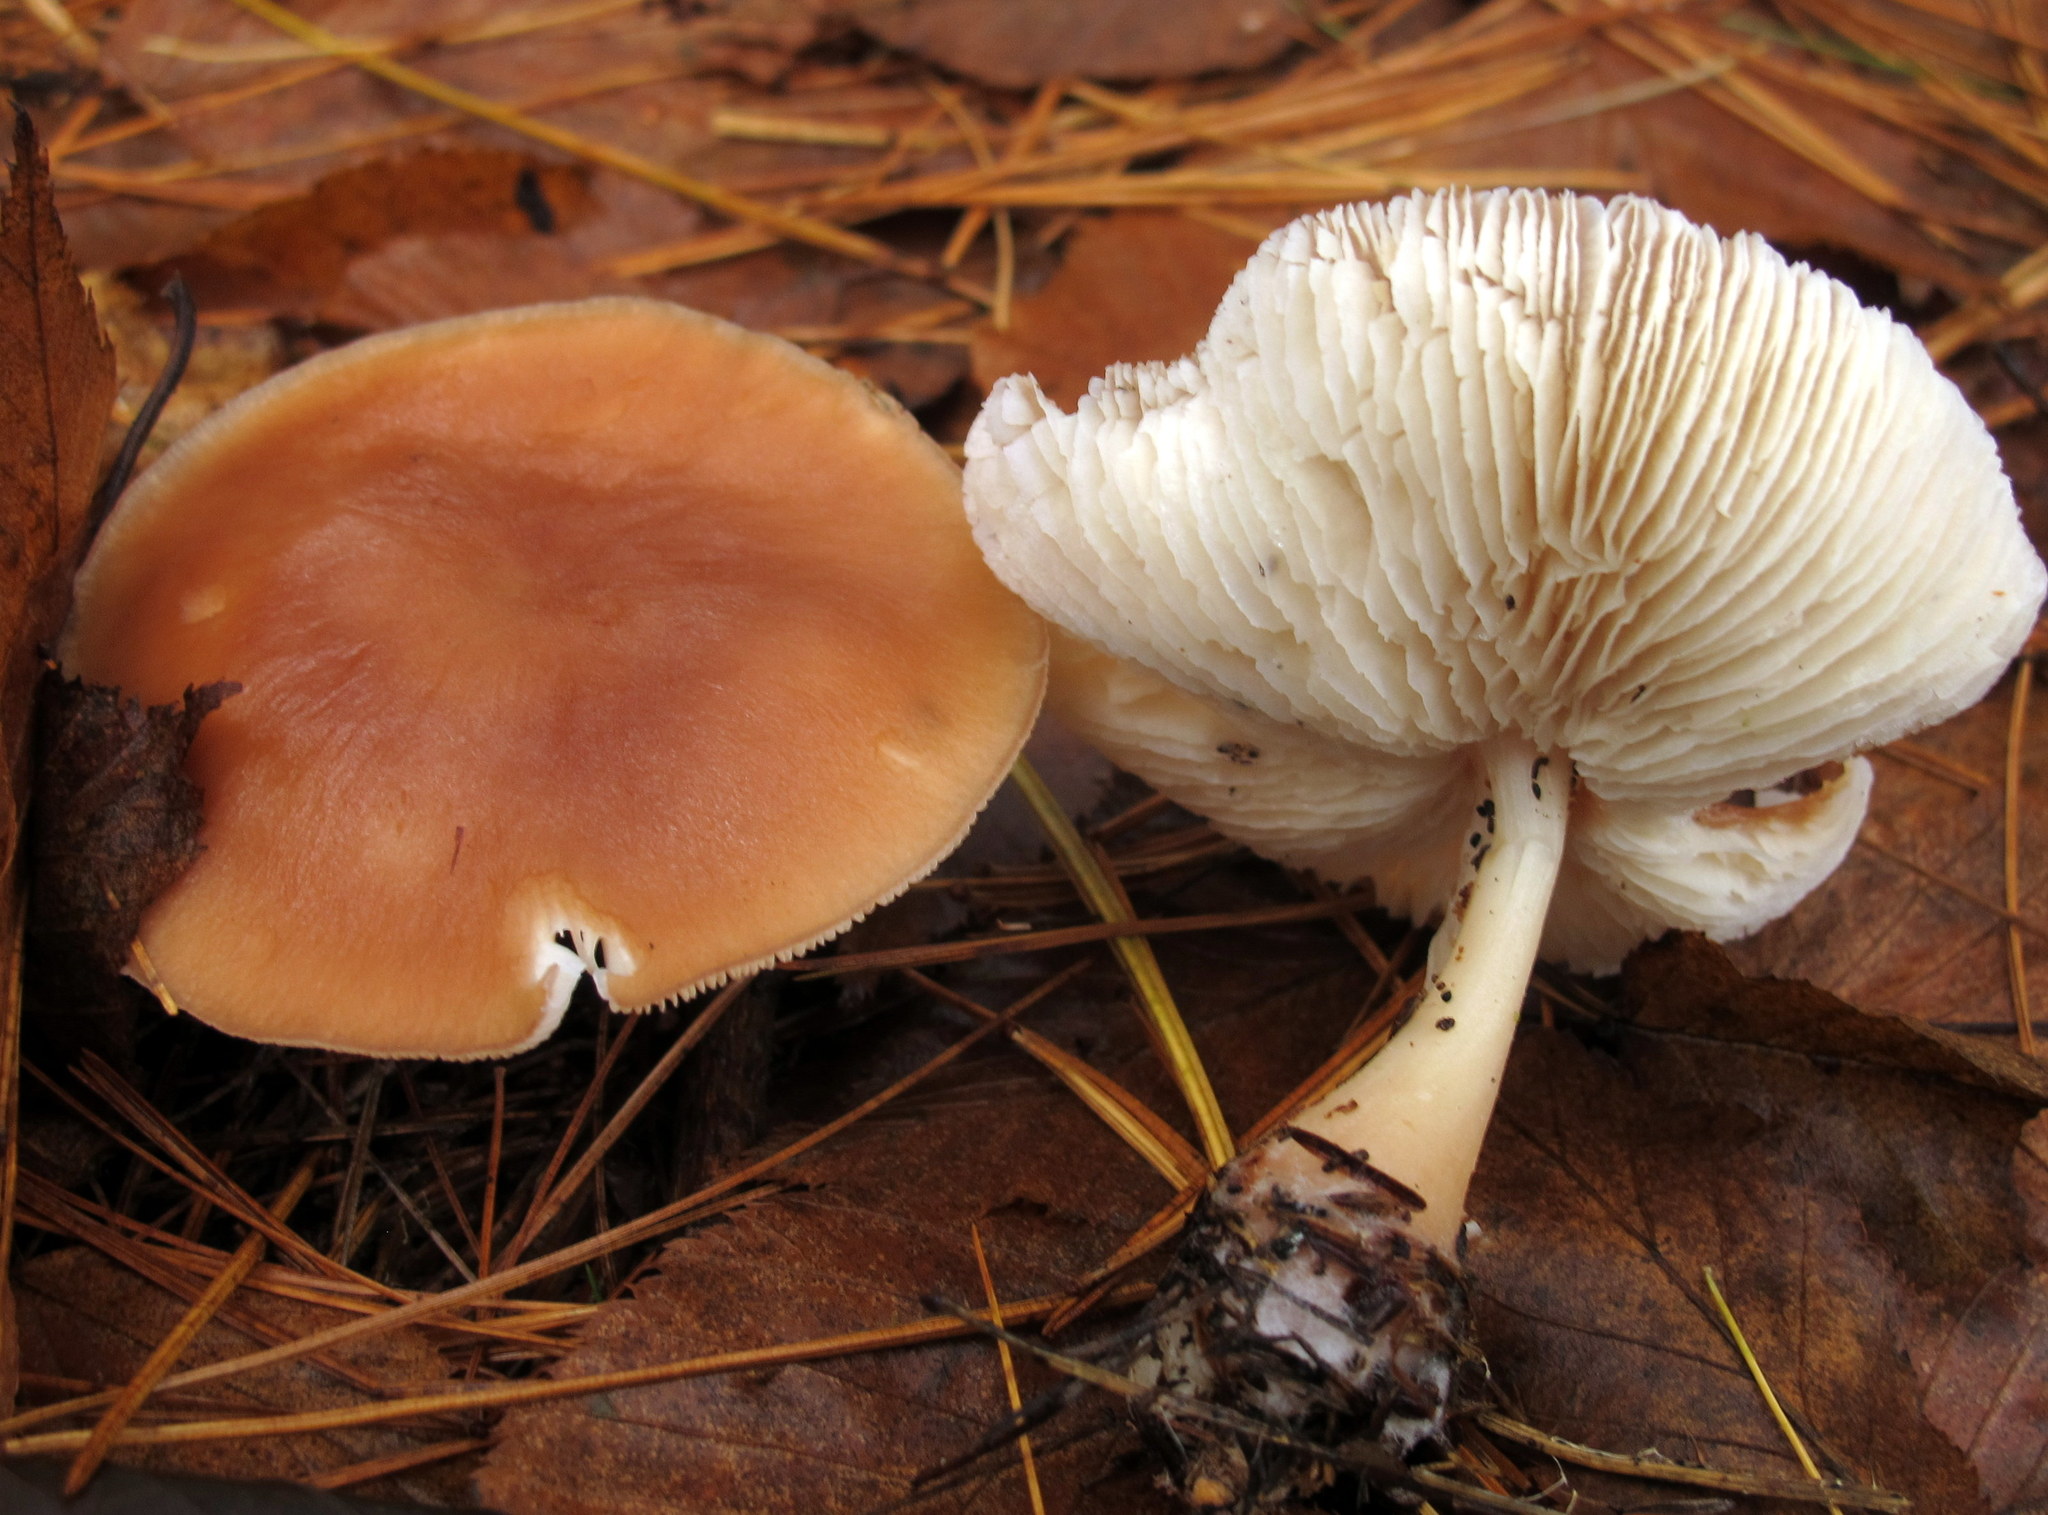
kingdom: Fungi
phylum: Basidiomycota
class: Agaricomycetes
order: Agaricales
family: Omphalotaceae
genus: Rhodocollybia
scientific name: Rhodocollybia butyracea
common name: Butter cap
